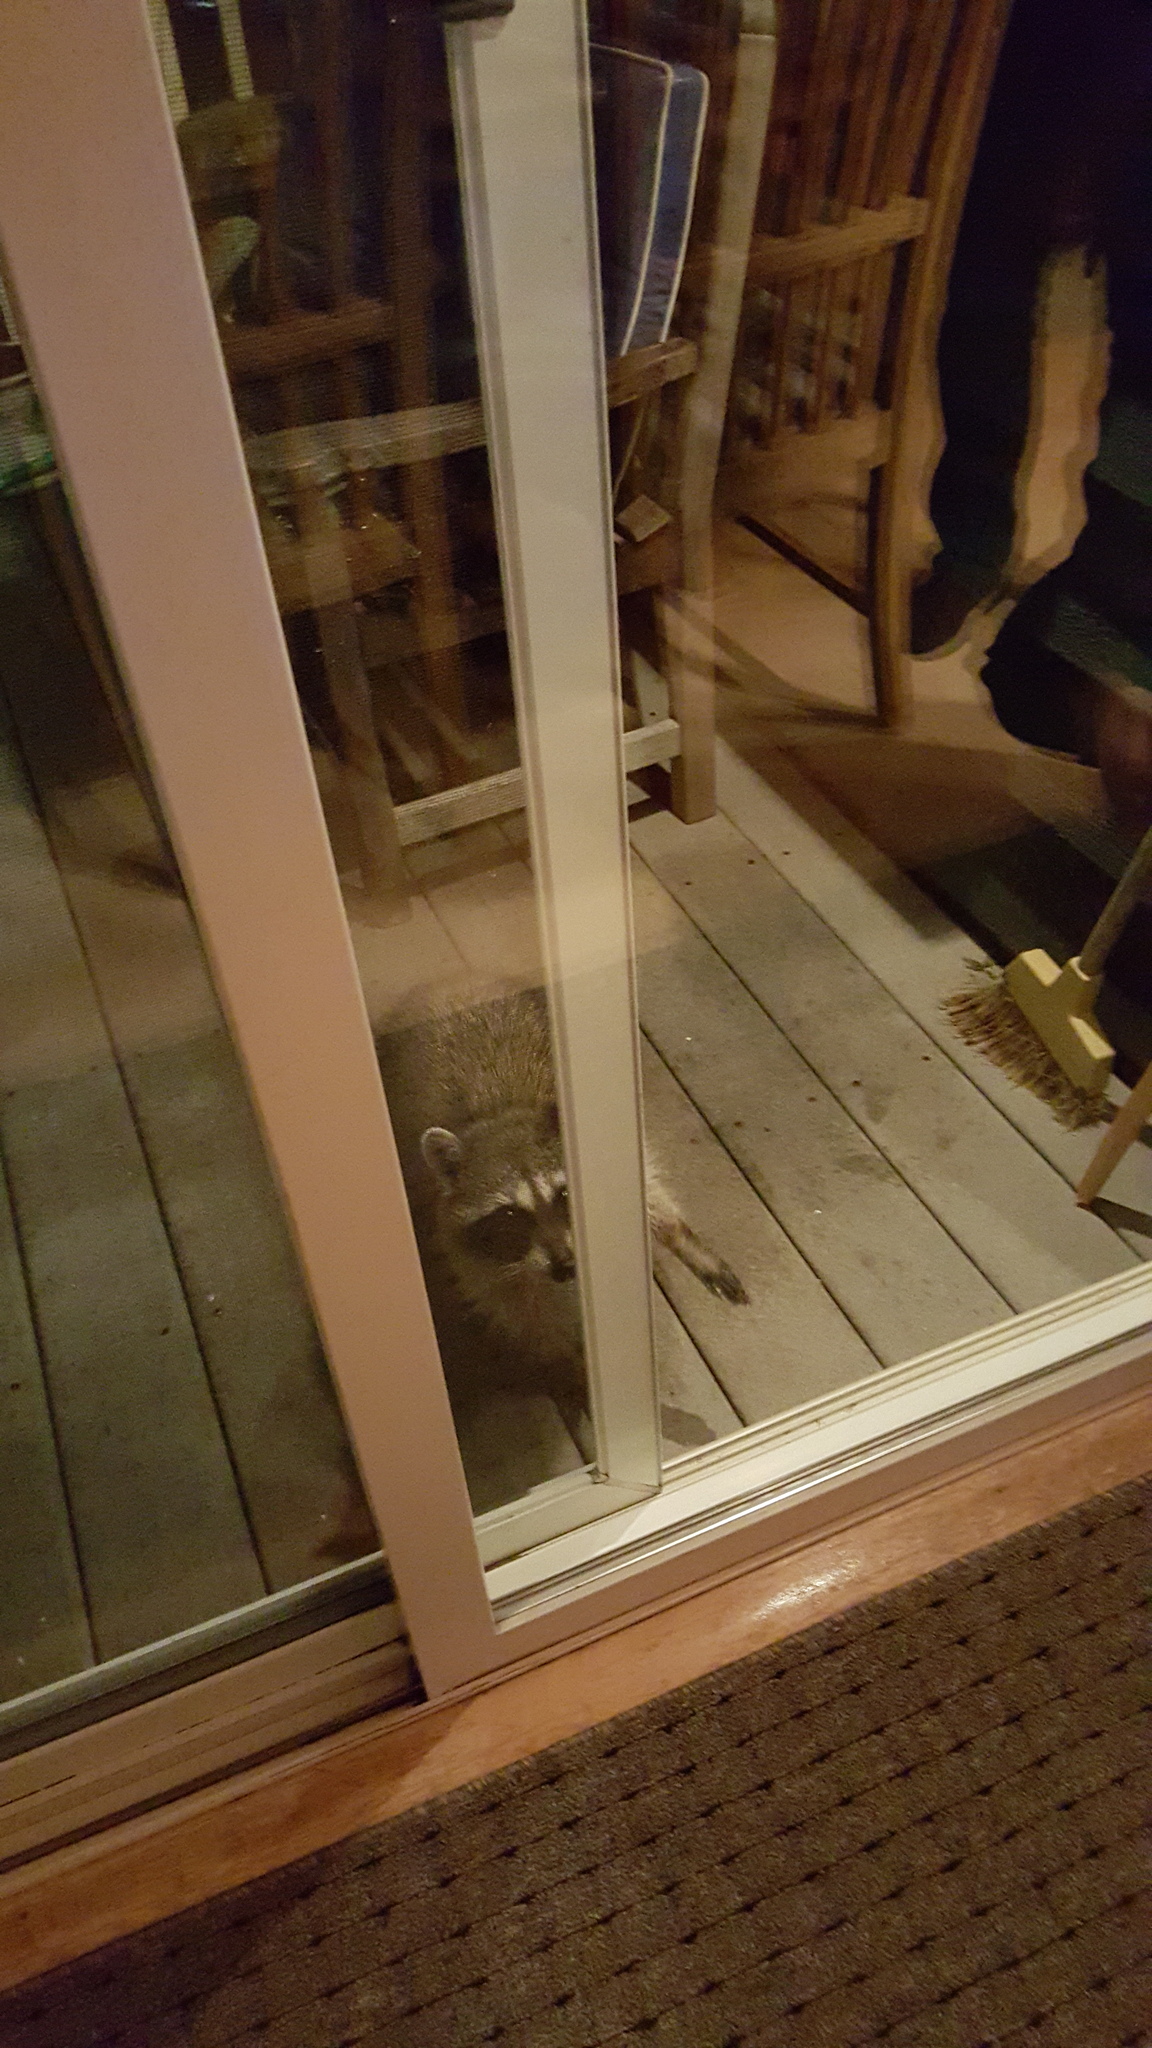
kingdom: Animalia
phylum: Chordata
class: Mammalia
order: Carnivora
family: Procyonidae
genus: Procyon
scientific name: Procyon lotor
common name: Raccoon
